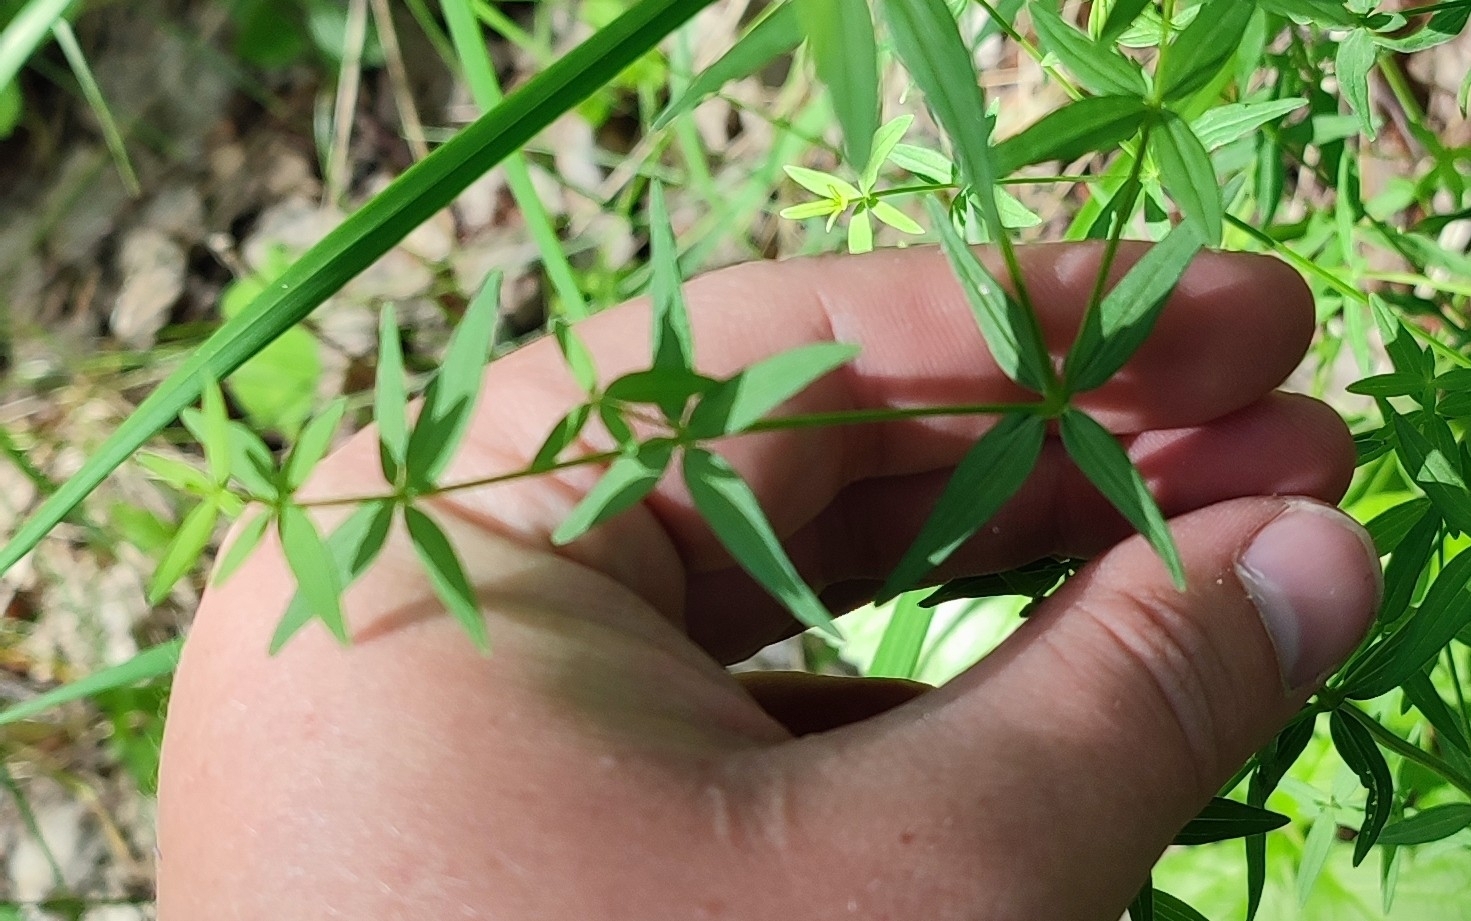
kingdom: Plantae
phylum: Tracheophyta
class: Magnoliopsida
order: Gentianales
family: Rubiaceae
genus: Galium
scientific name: Galium boreale
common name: Northern bedstraw
